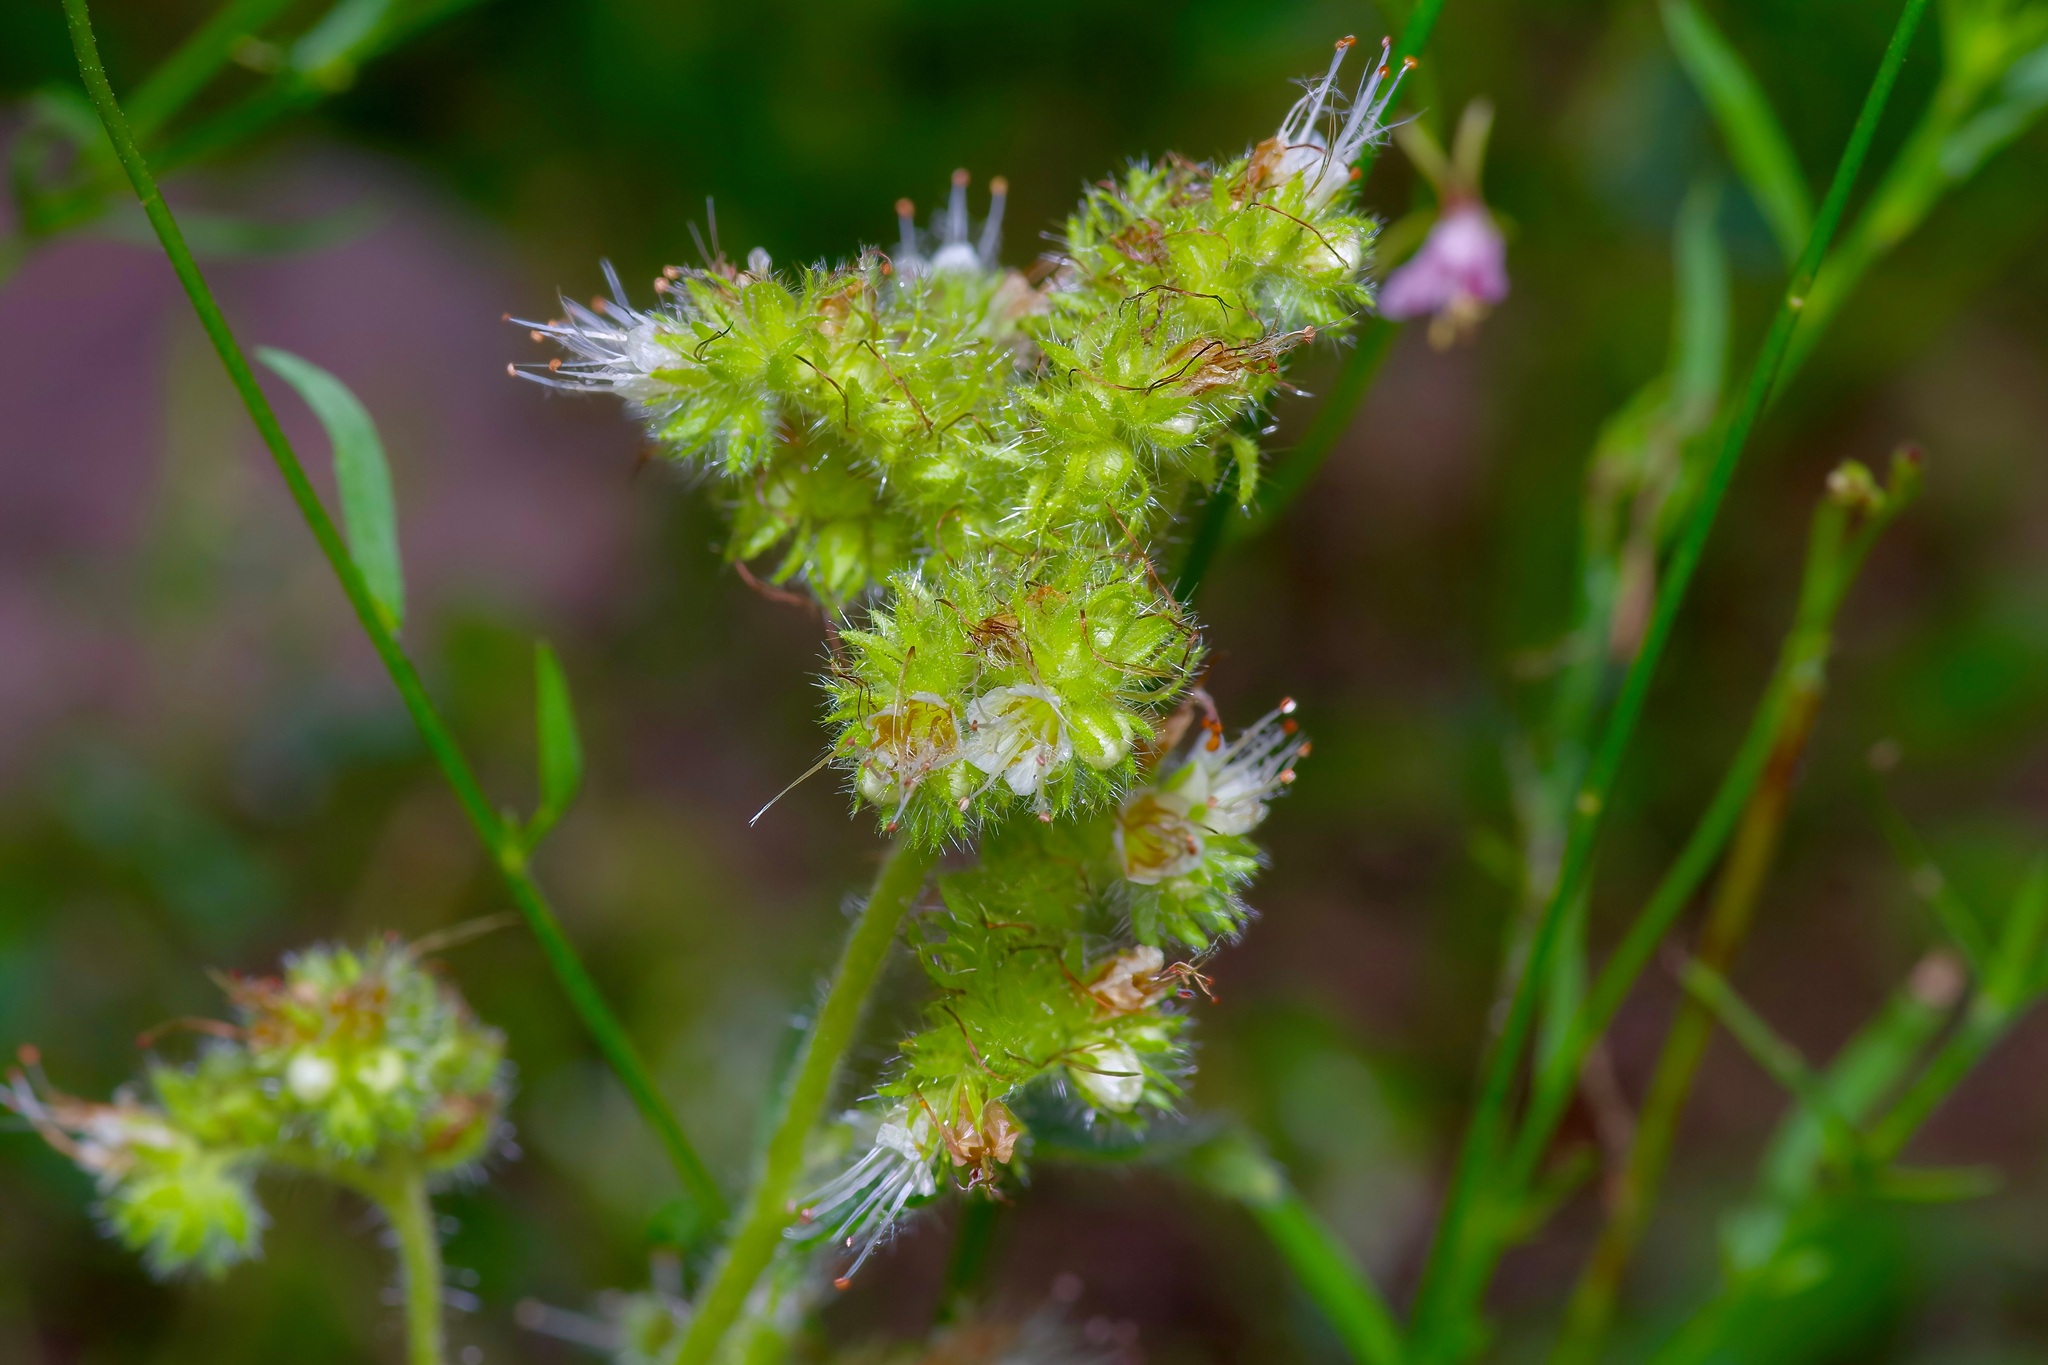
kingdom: Plantae
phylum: Tracheophyta
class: Magnoliopsida
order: Boraginales
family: Hydrophyllaceae
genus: Phacelia
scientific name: Phacelia heterophylla
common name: Variable-leaved phacelia
